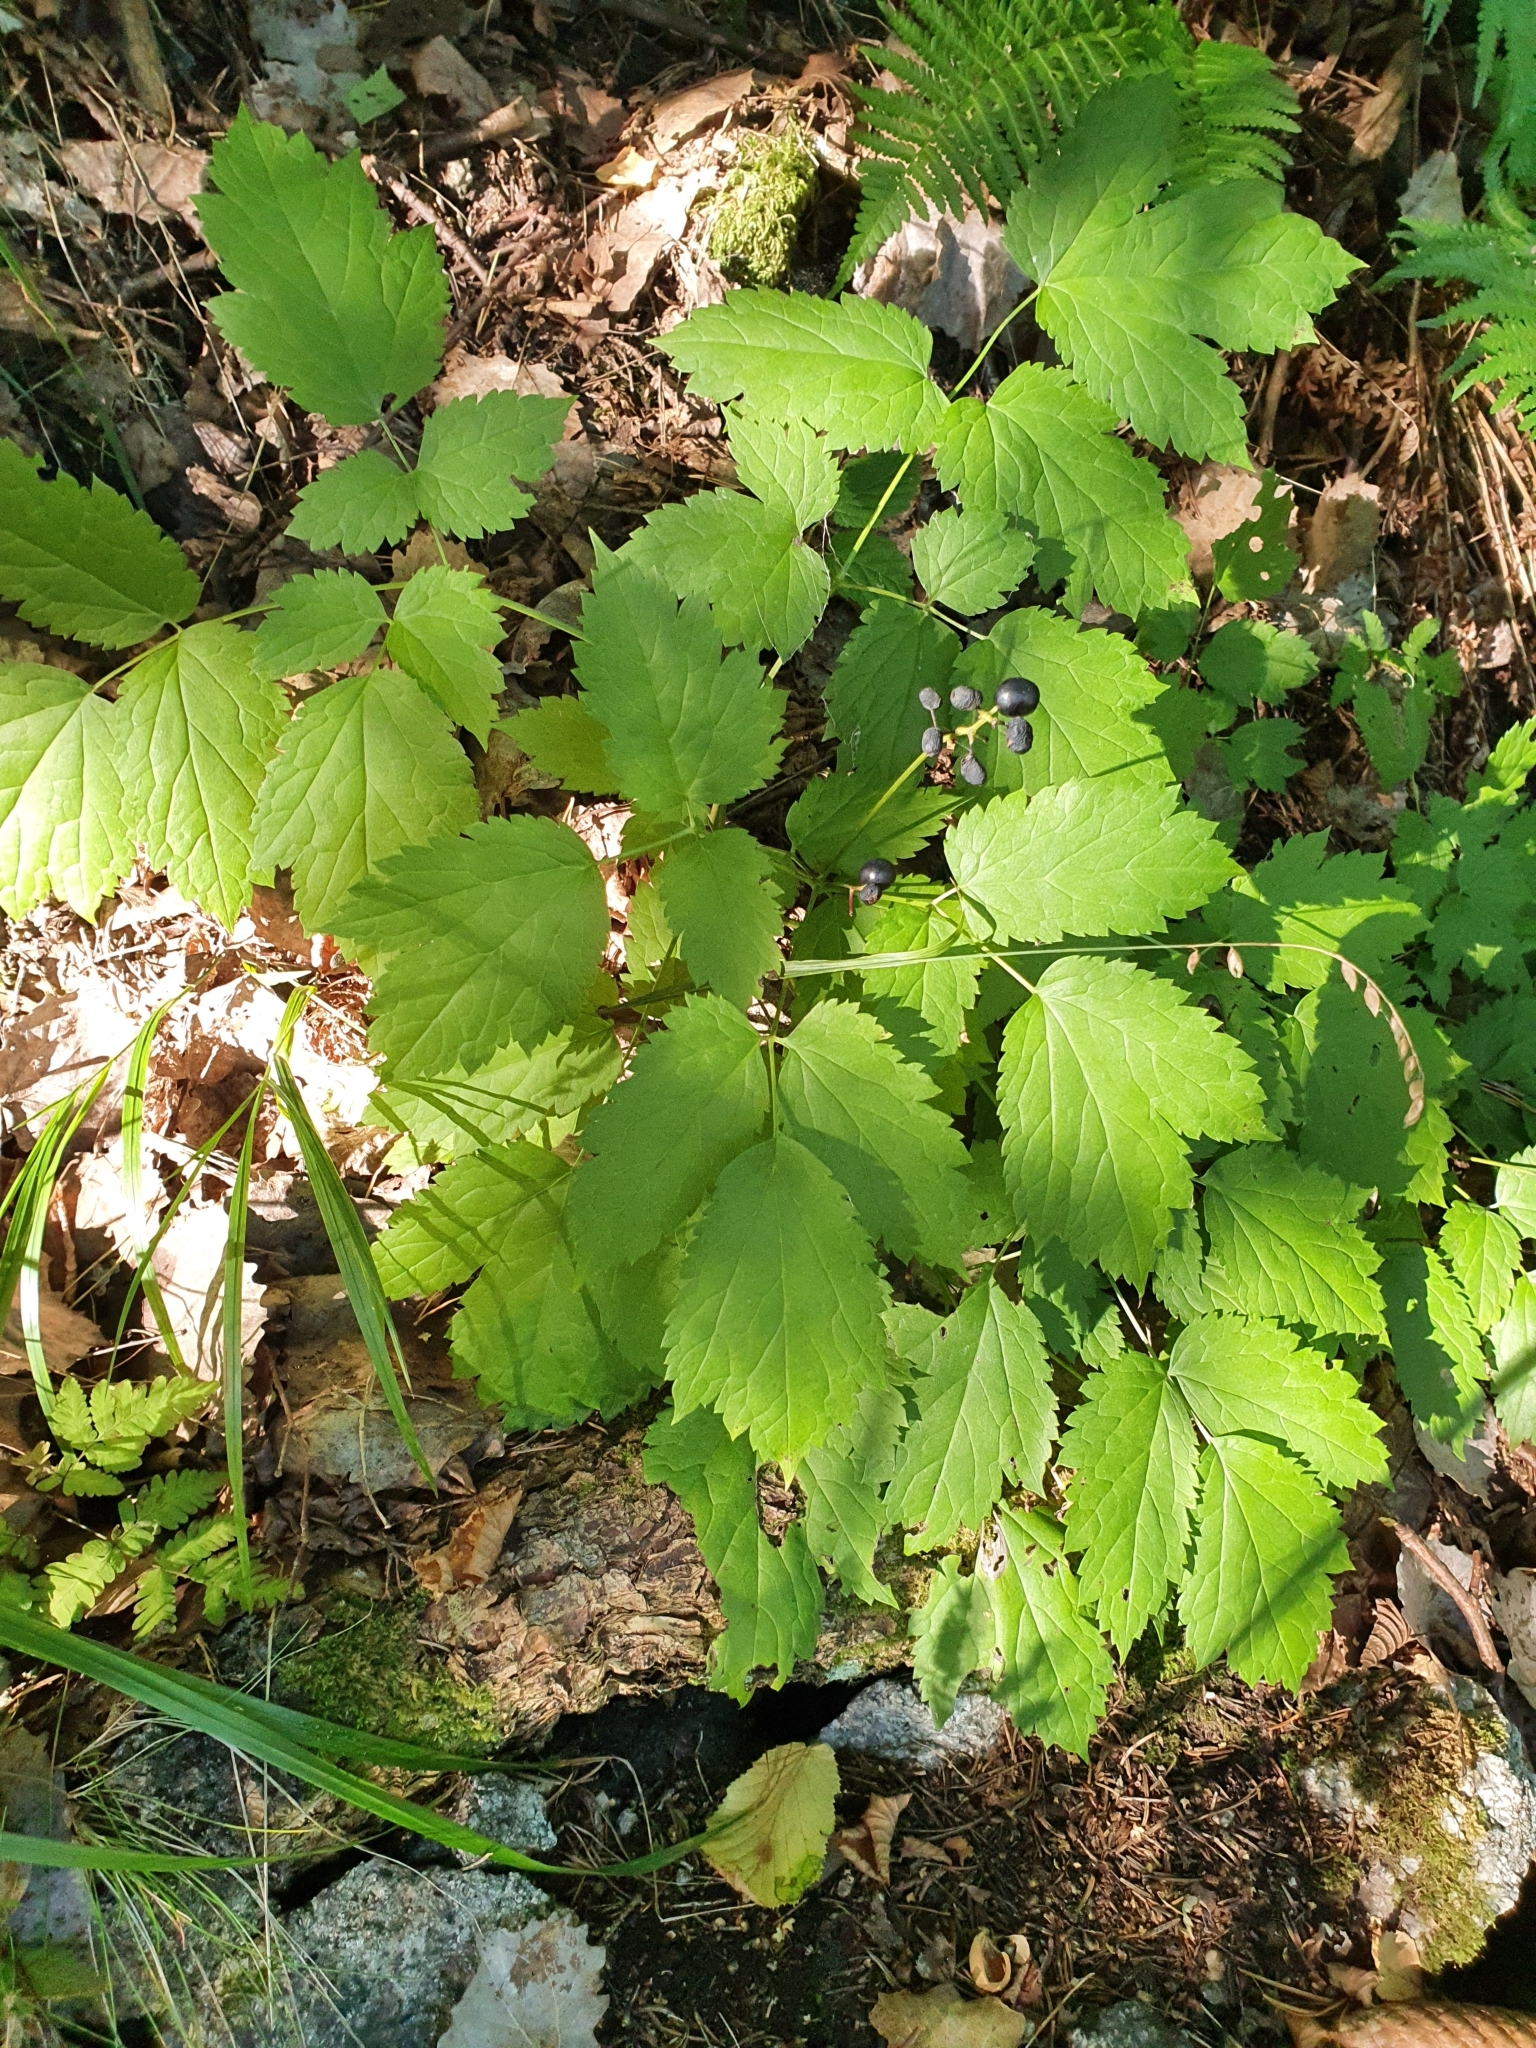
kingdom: Plantae
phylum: Tracheophyta
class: Magnoliopsida
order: Ranunculales
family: Ranunculaceae
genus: Actaea
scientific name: Actaea spicata
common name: Baneberry
